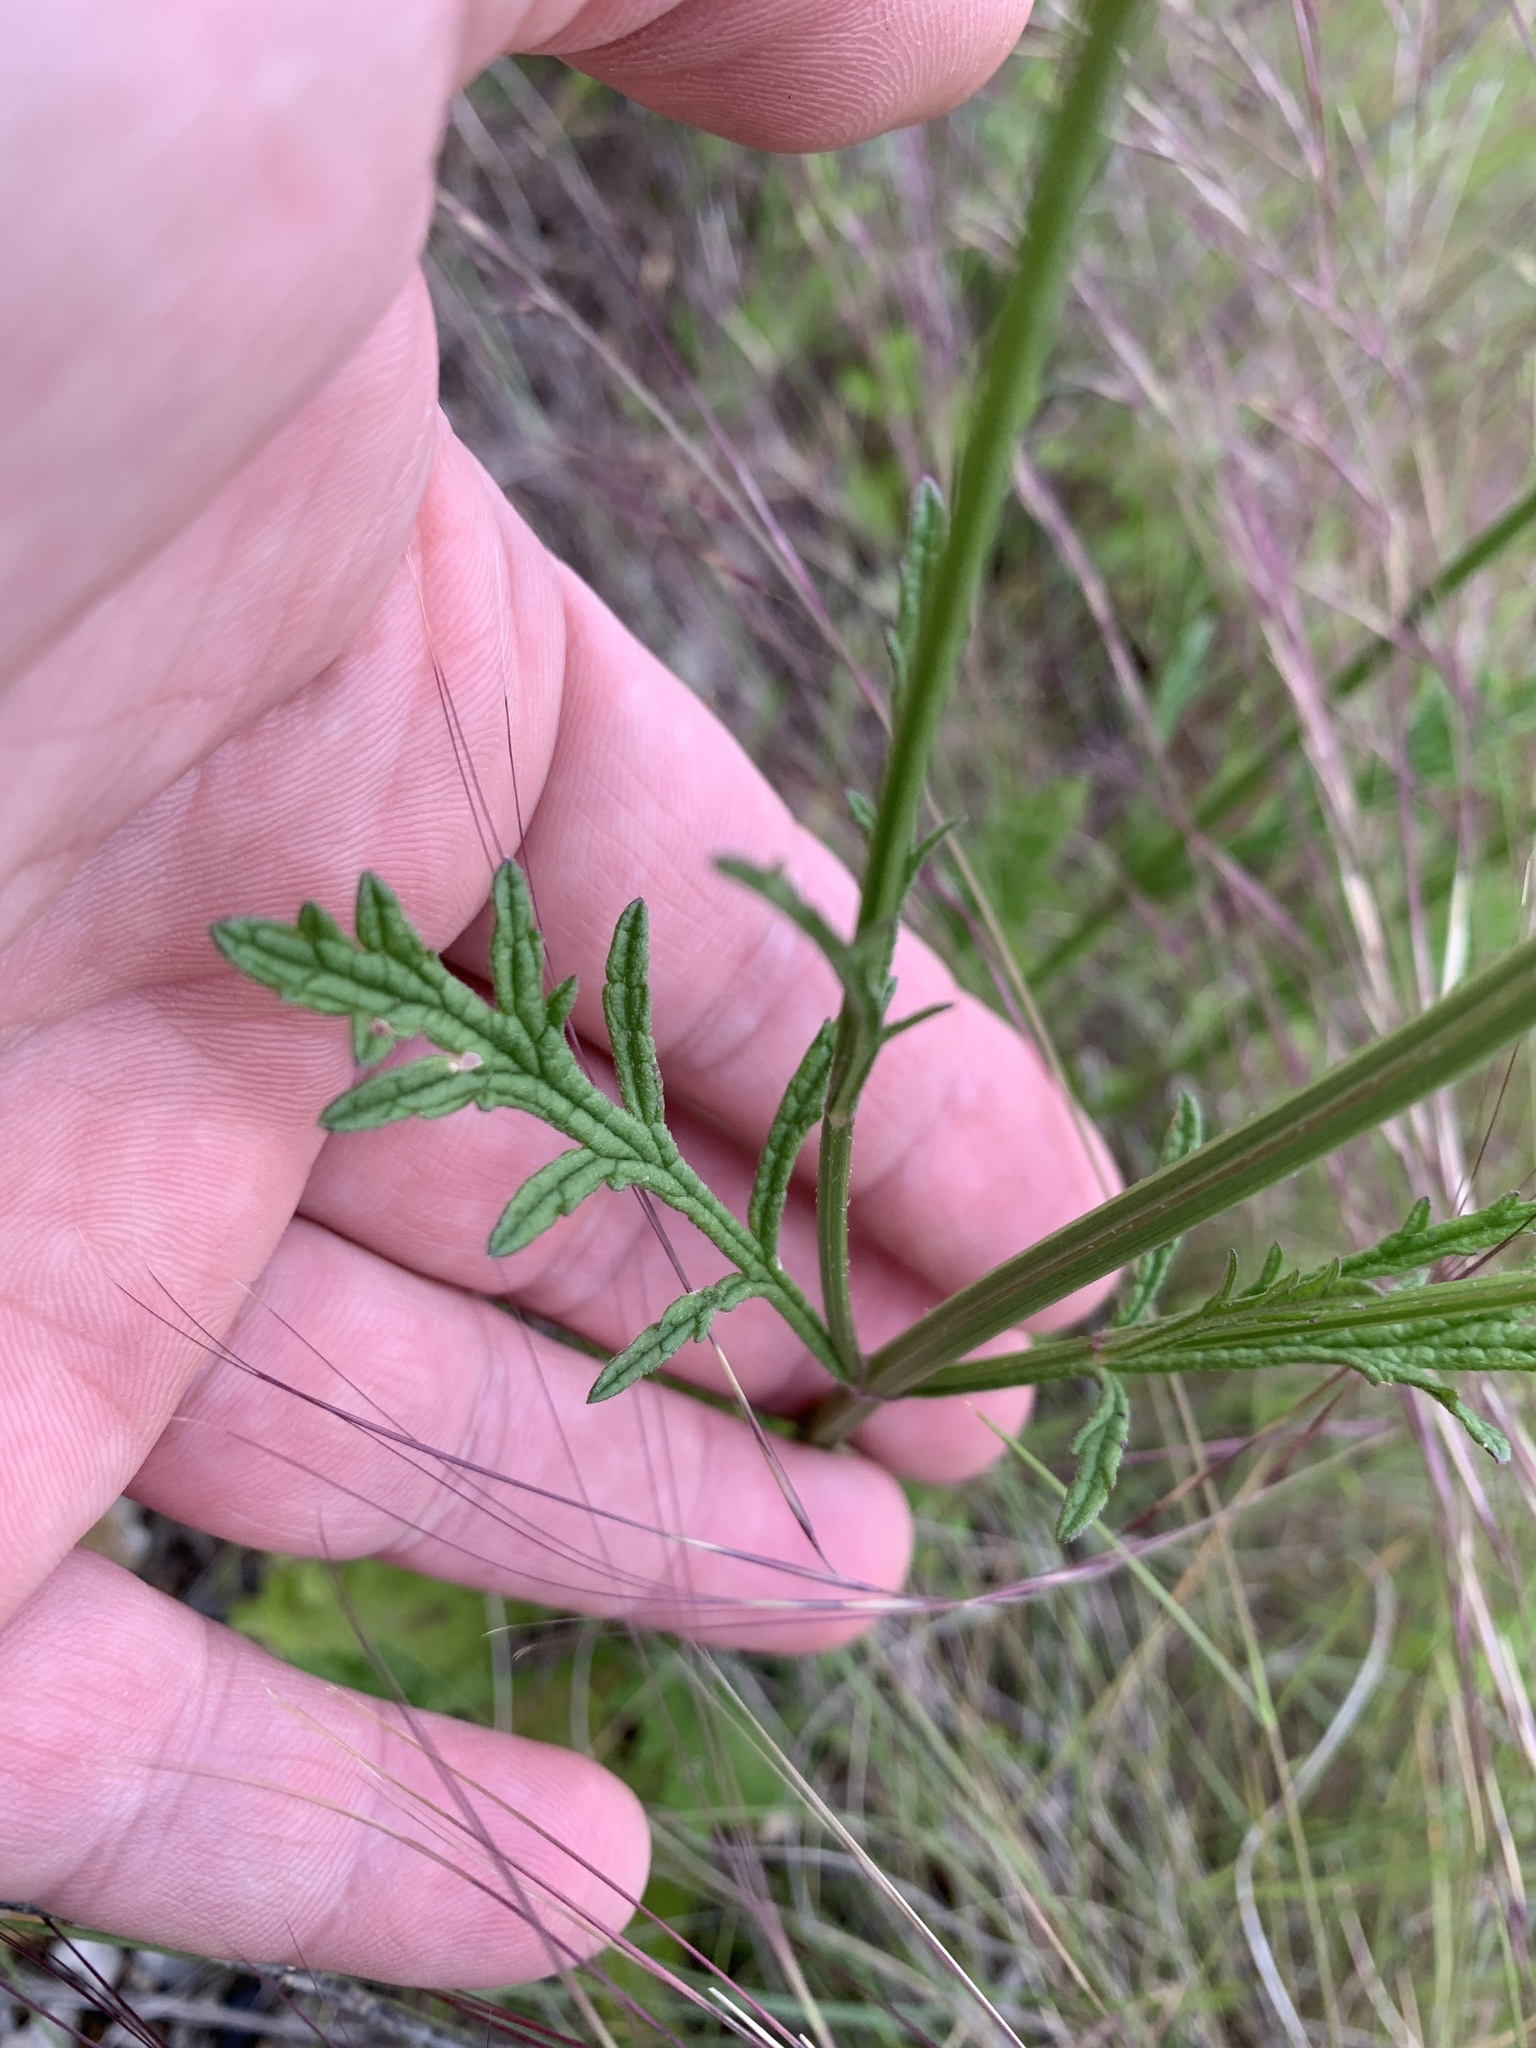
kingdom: Plantae
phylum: Tracheophyta
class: Magnoliopsida
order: Lamiales
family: Verbenaceae
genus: Verbena
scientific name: Verbena halei
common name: Texas vervain
